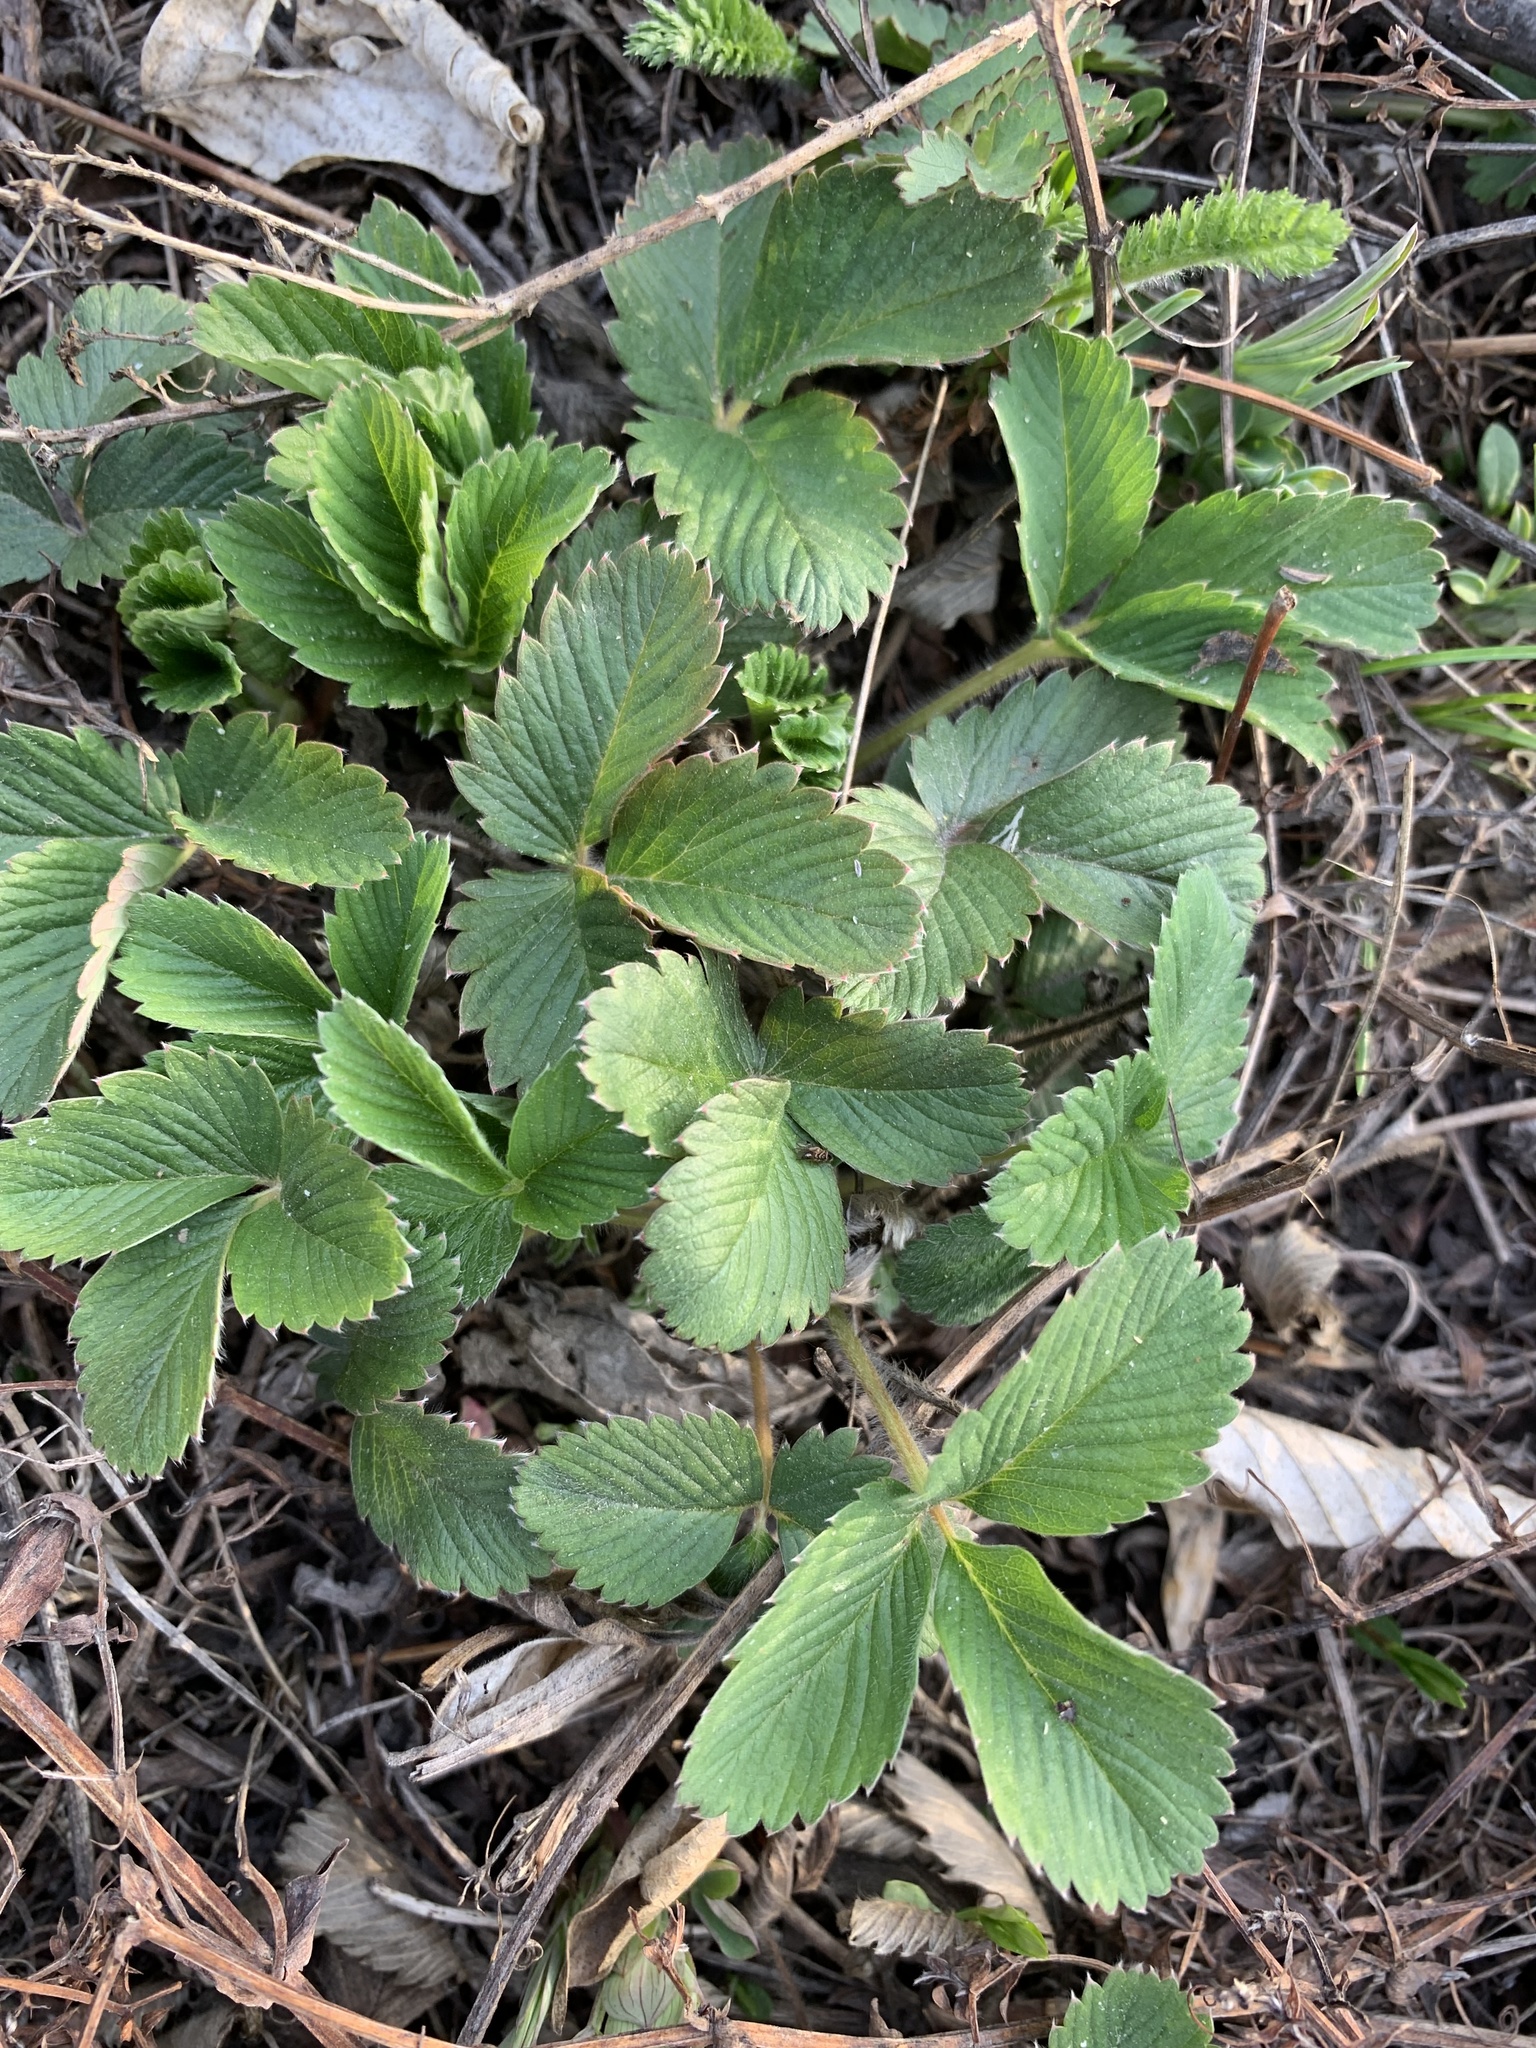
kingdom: Plantae
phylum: Tracheophyta
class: Magnoliopsida
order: Rosales
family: Rosaceae
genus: Fragaria
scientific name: Fragaria viridis
